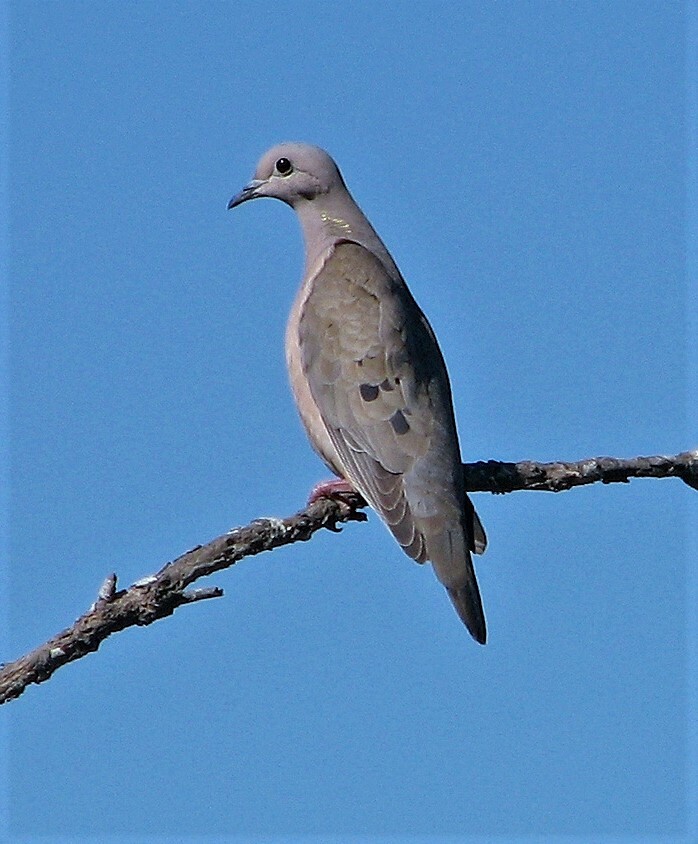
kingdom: Animalia
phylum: Chordata
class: Aves
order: Columbiformes
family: Columbidae
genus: Zenaida
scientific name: Zenaida auriculata
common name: Eared dove
